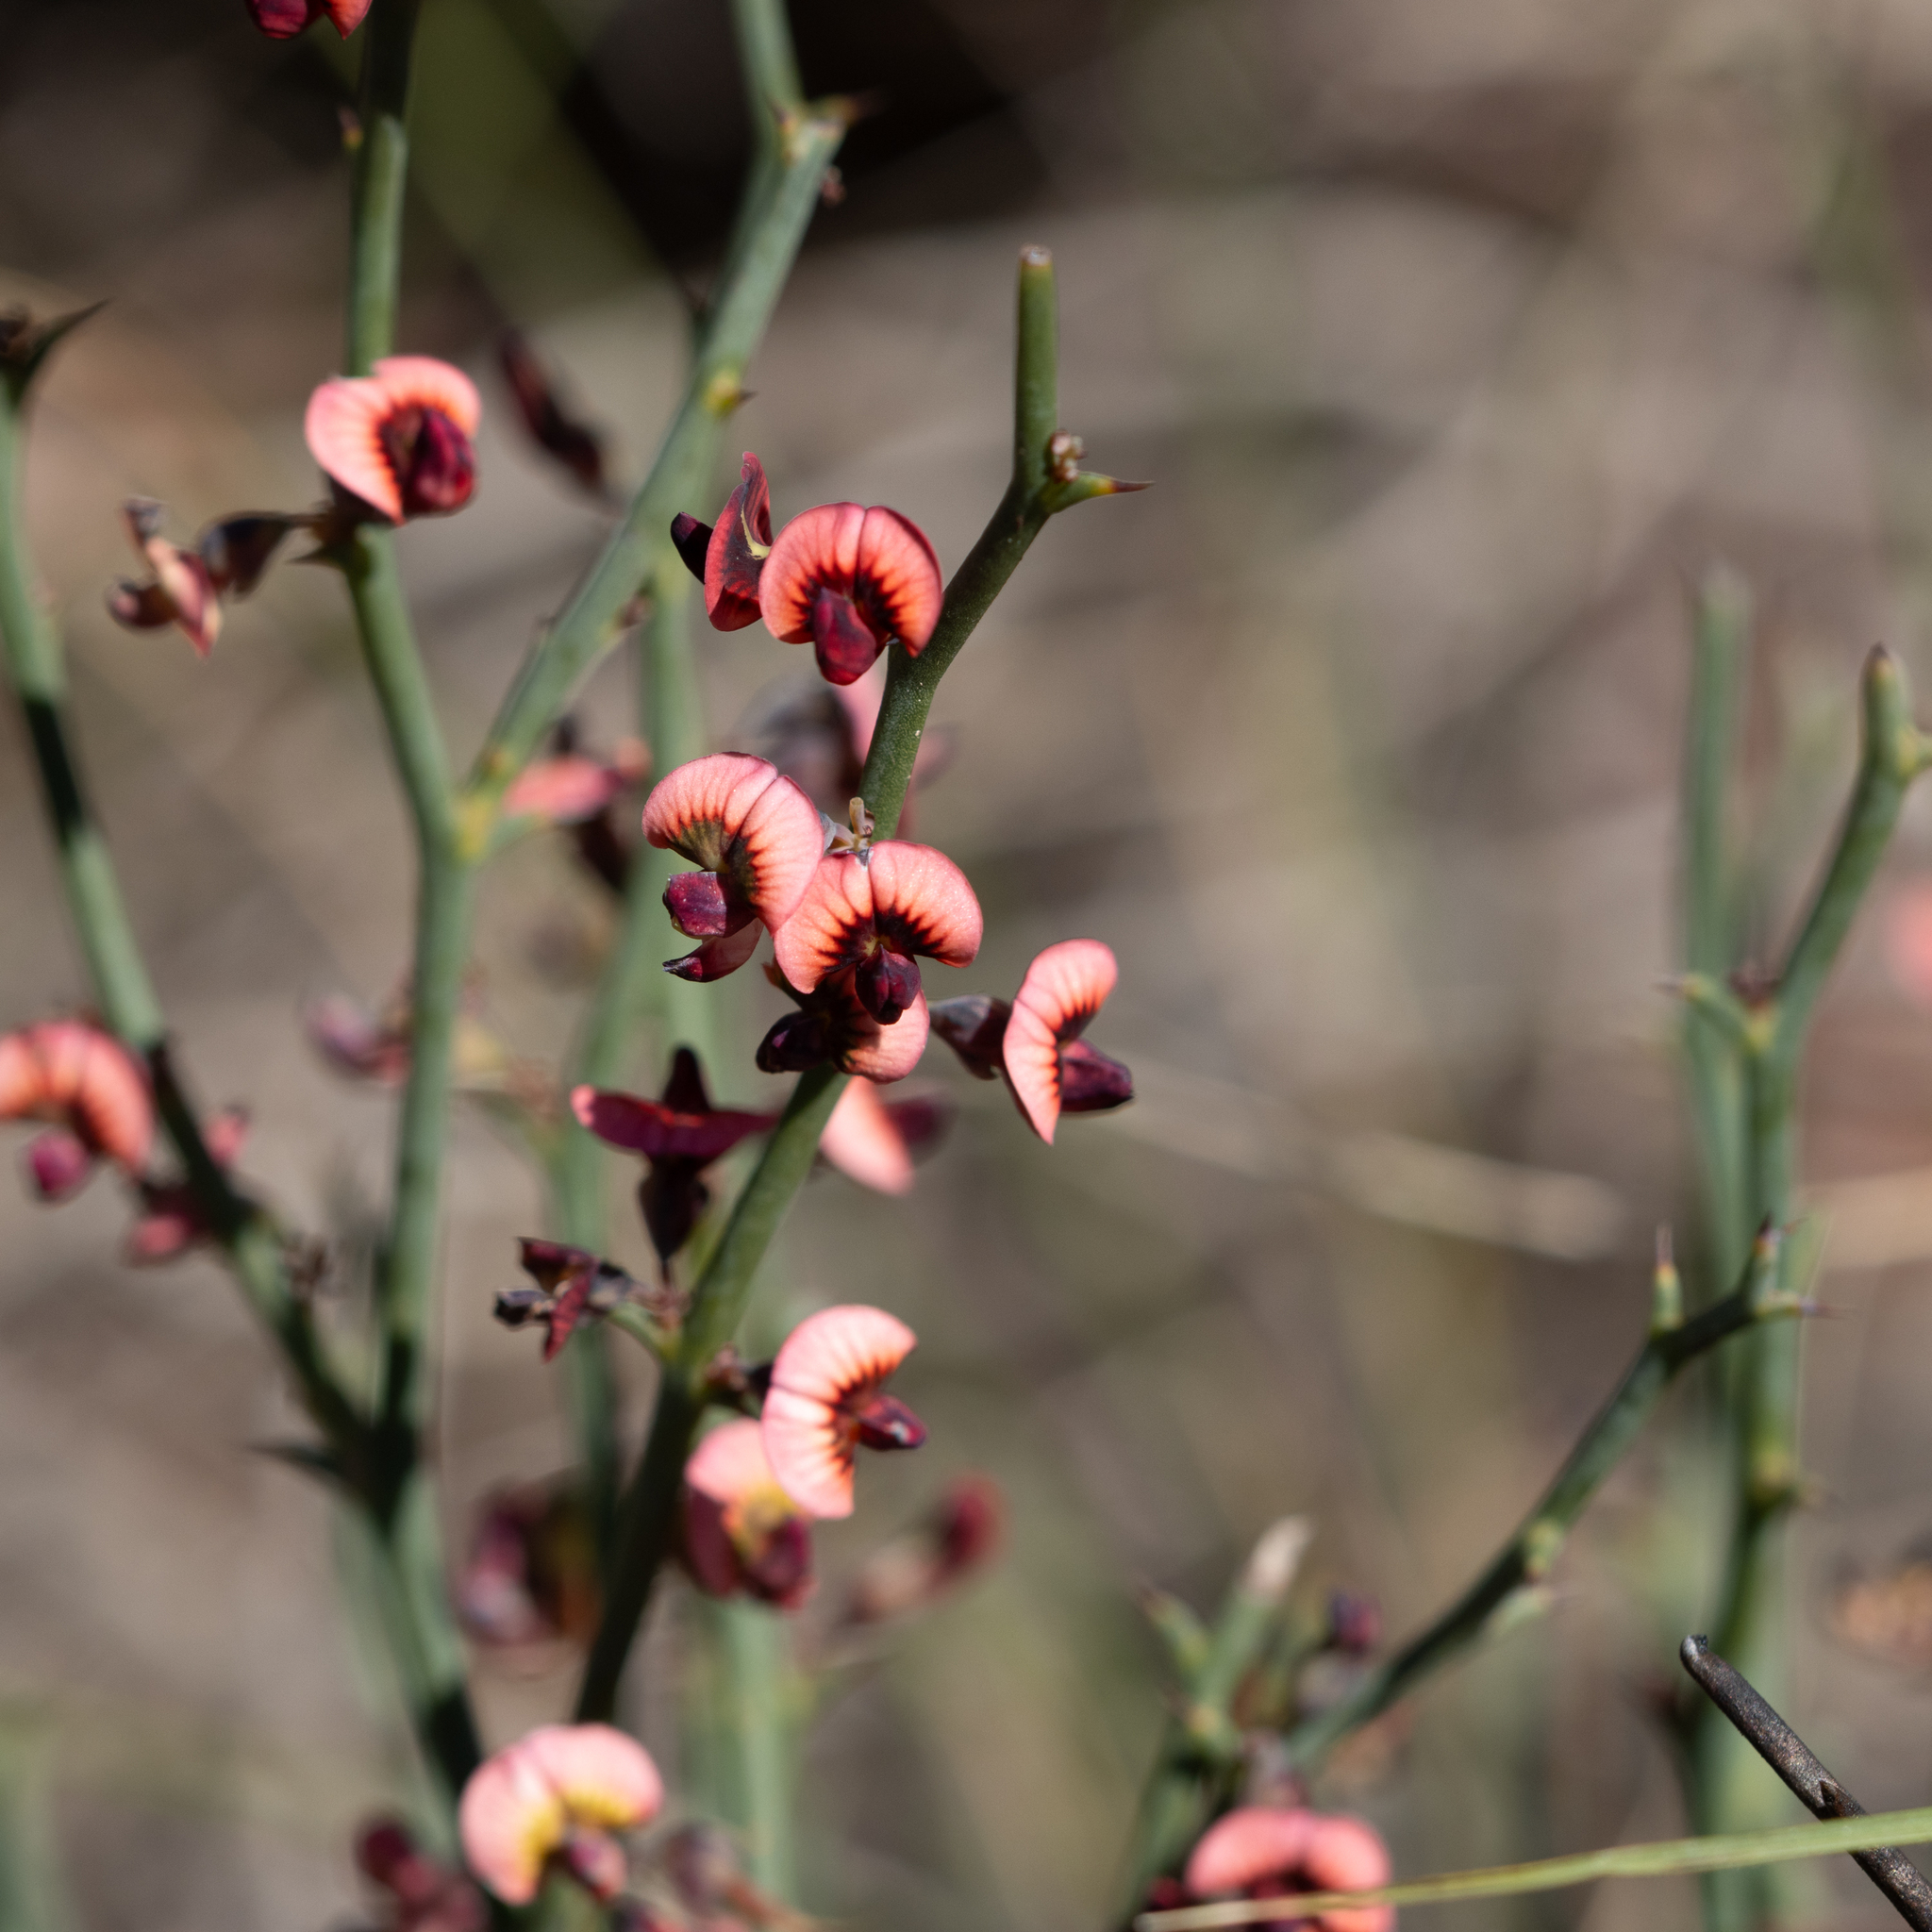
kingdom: Plantae
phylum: Tracheophyta
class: Magnoliopsida
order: Fabales
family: Fabaceae
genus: Daviesia
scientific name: Daviesia brevifolia
